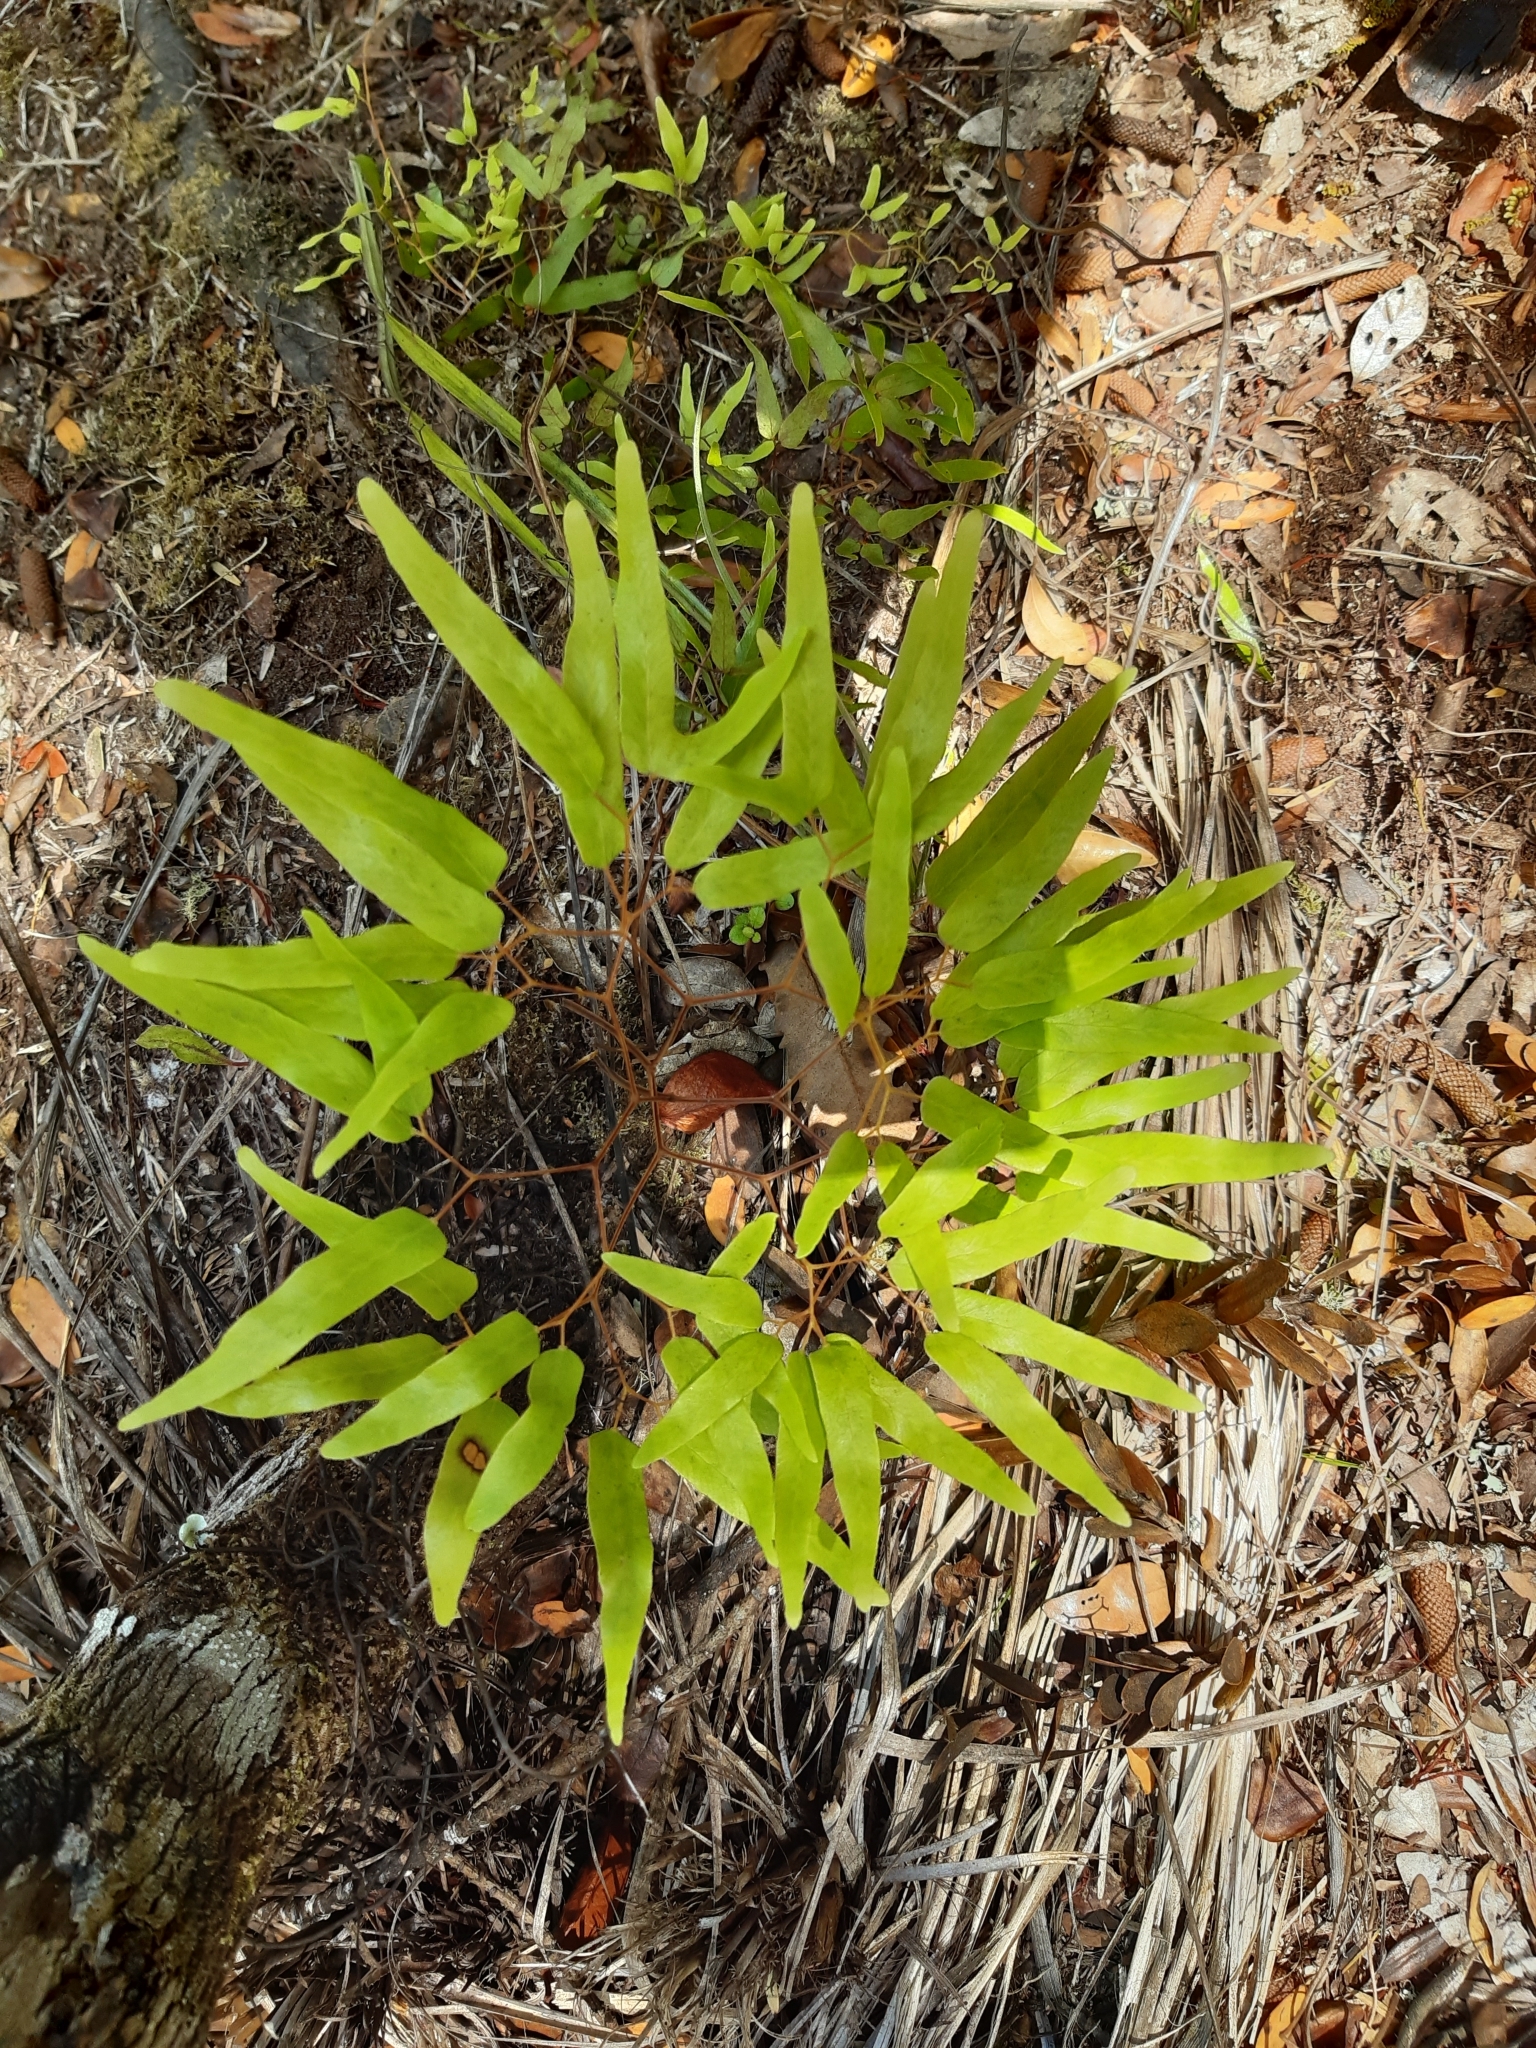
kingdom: Plantae
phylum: Tracheophyta
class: Polypodiopsida
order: Schizaeales
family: Lygodiaceae
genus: Lygodium
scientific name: Lygodium articulatum
